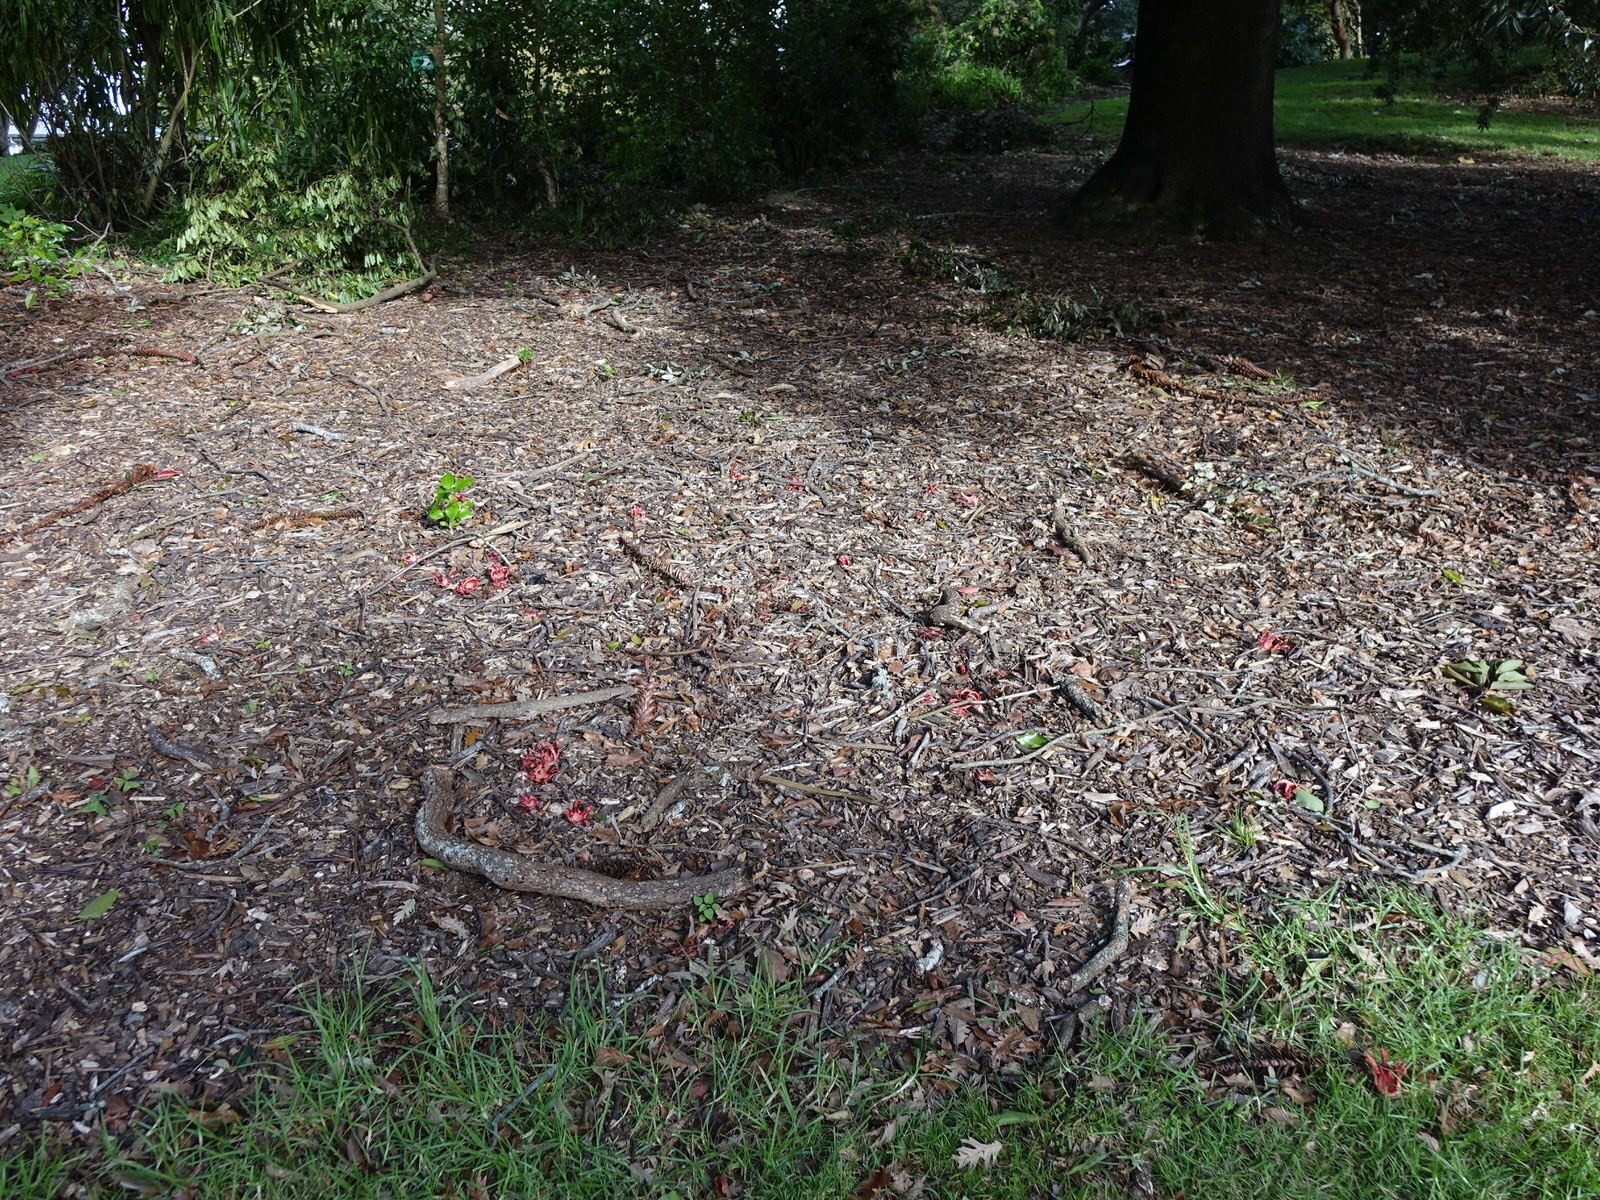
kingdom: Fungi
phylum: Basidiomycota
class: Agaricomycetes
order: Phallales
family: Phallaceae
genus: Clathrus
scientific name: Clathrus archeri
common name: Devil's fingers
